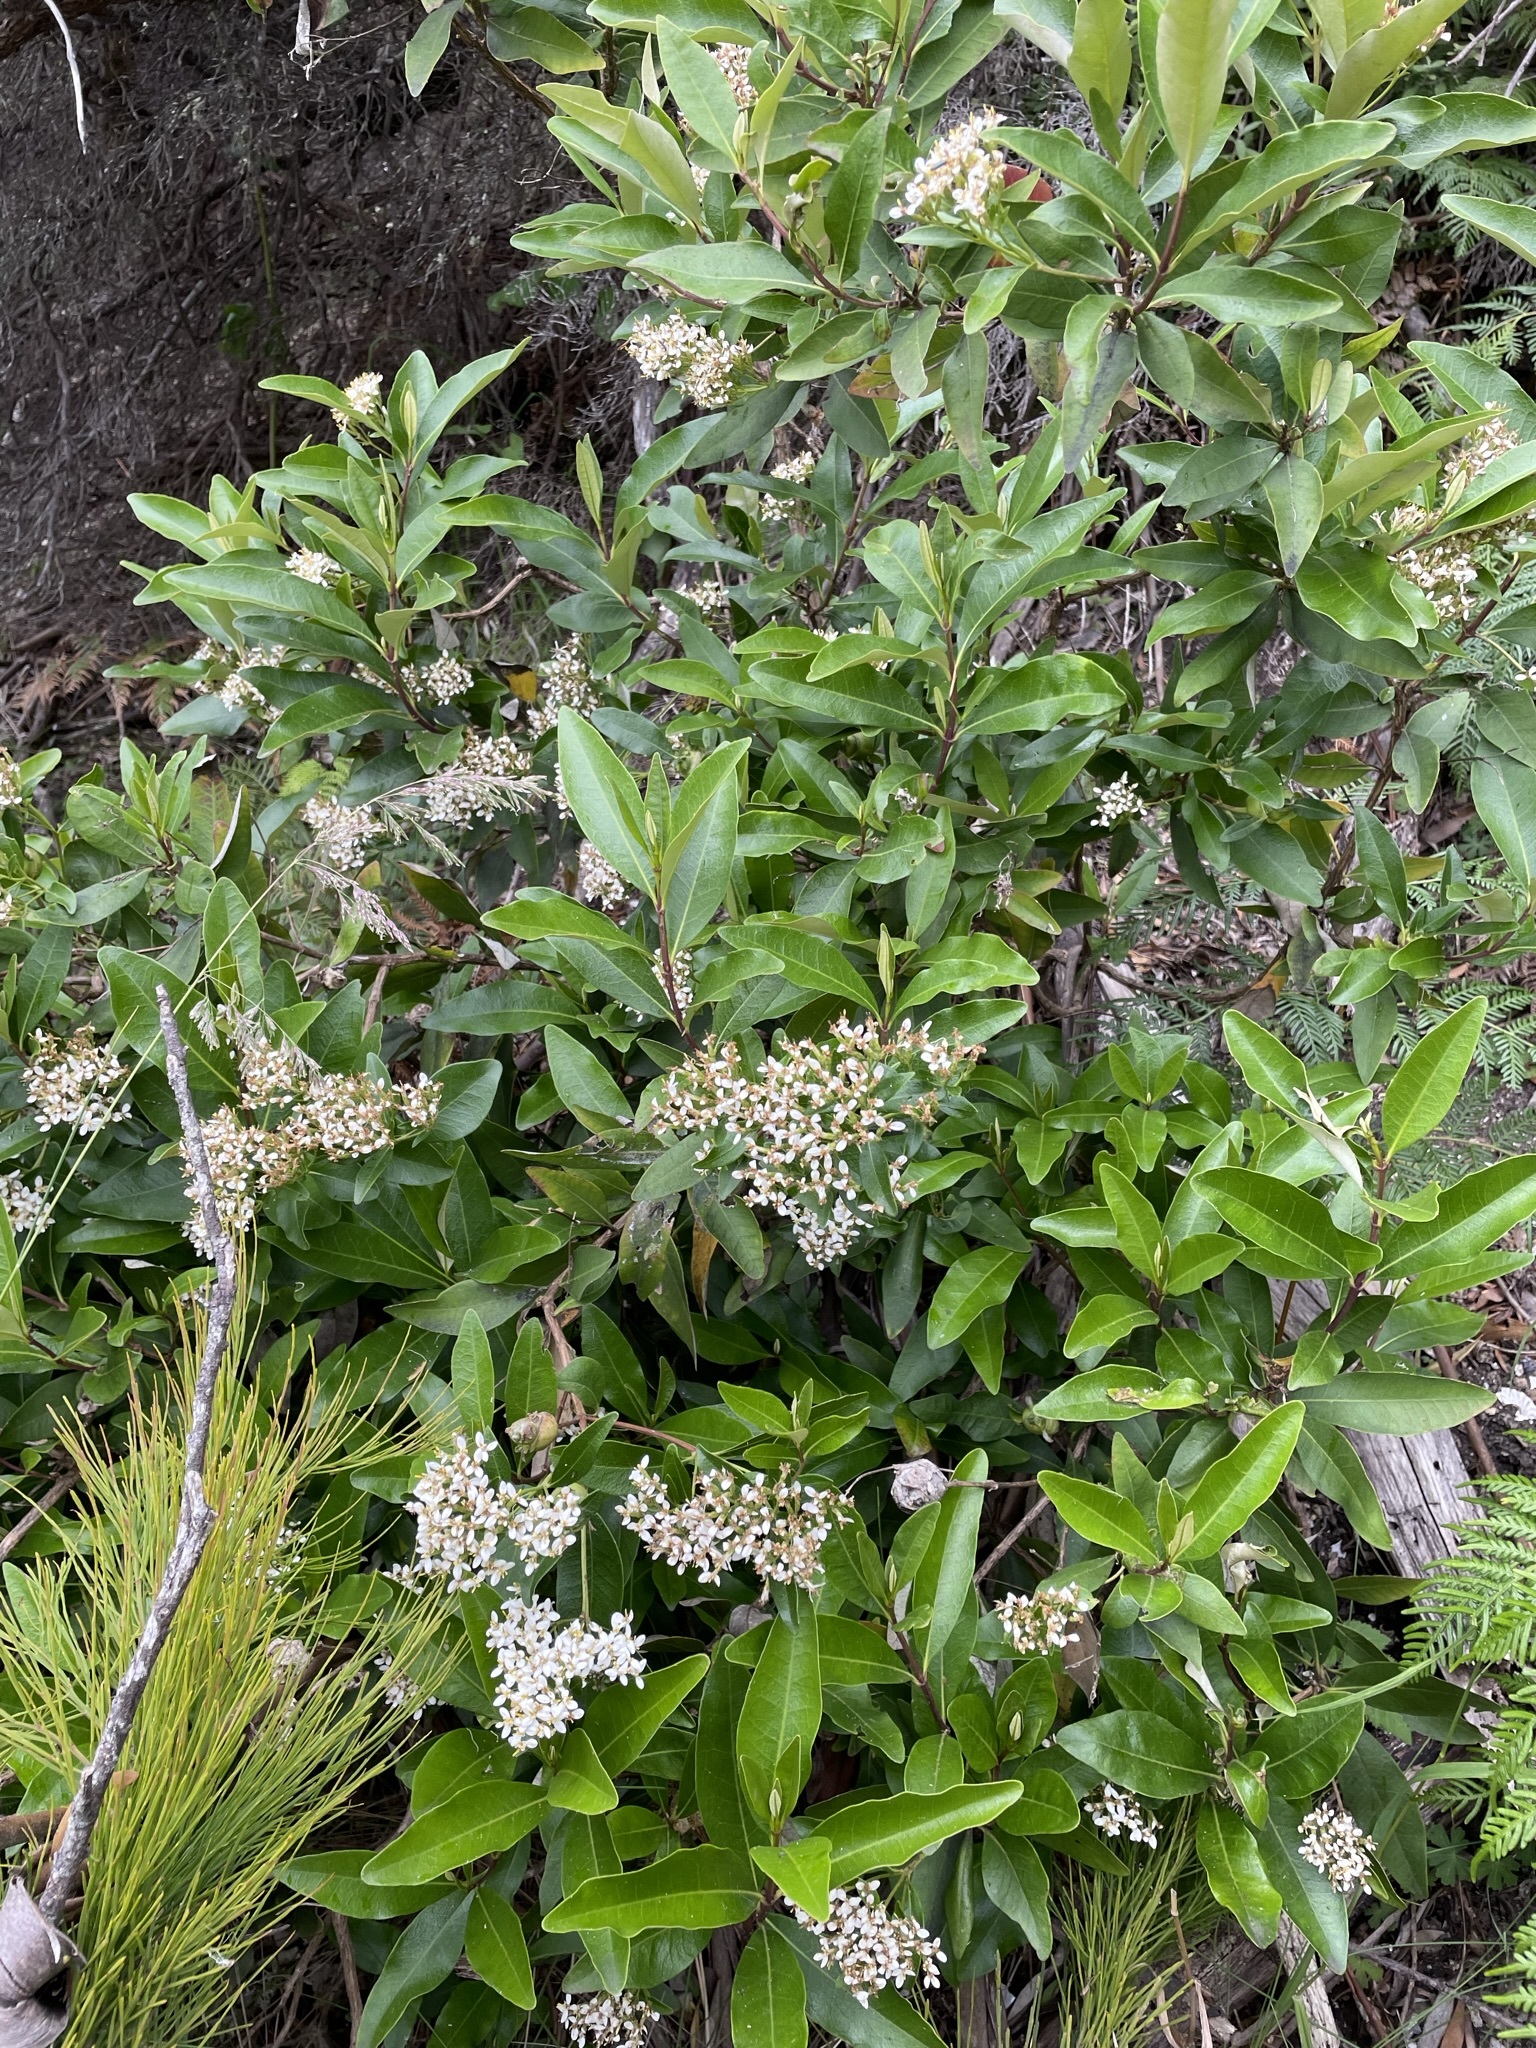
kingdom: Plantae
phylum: Tracheophyta
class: Magnoliopsida
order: Asterales
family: Asteraceae
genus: Olearia
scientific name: Olearia viscosa
